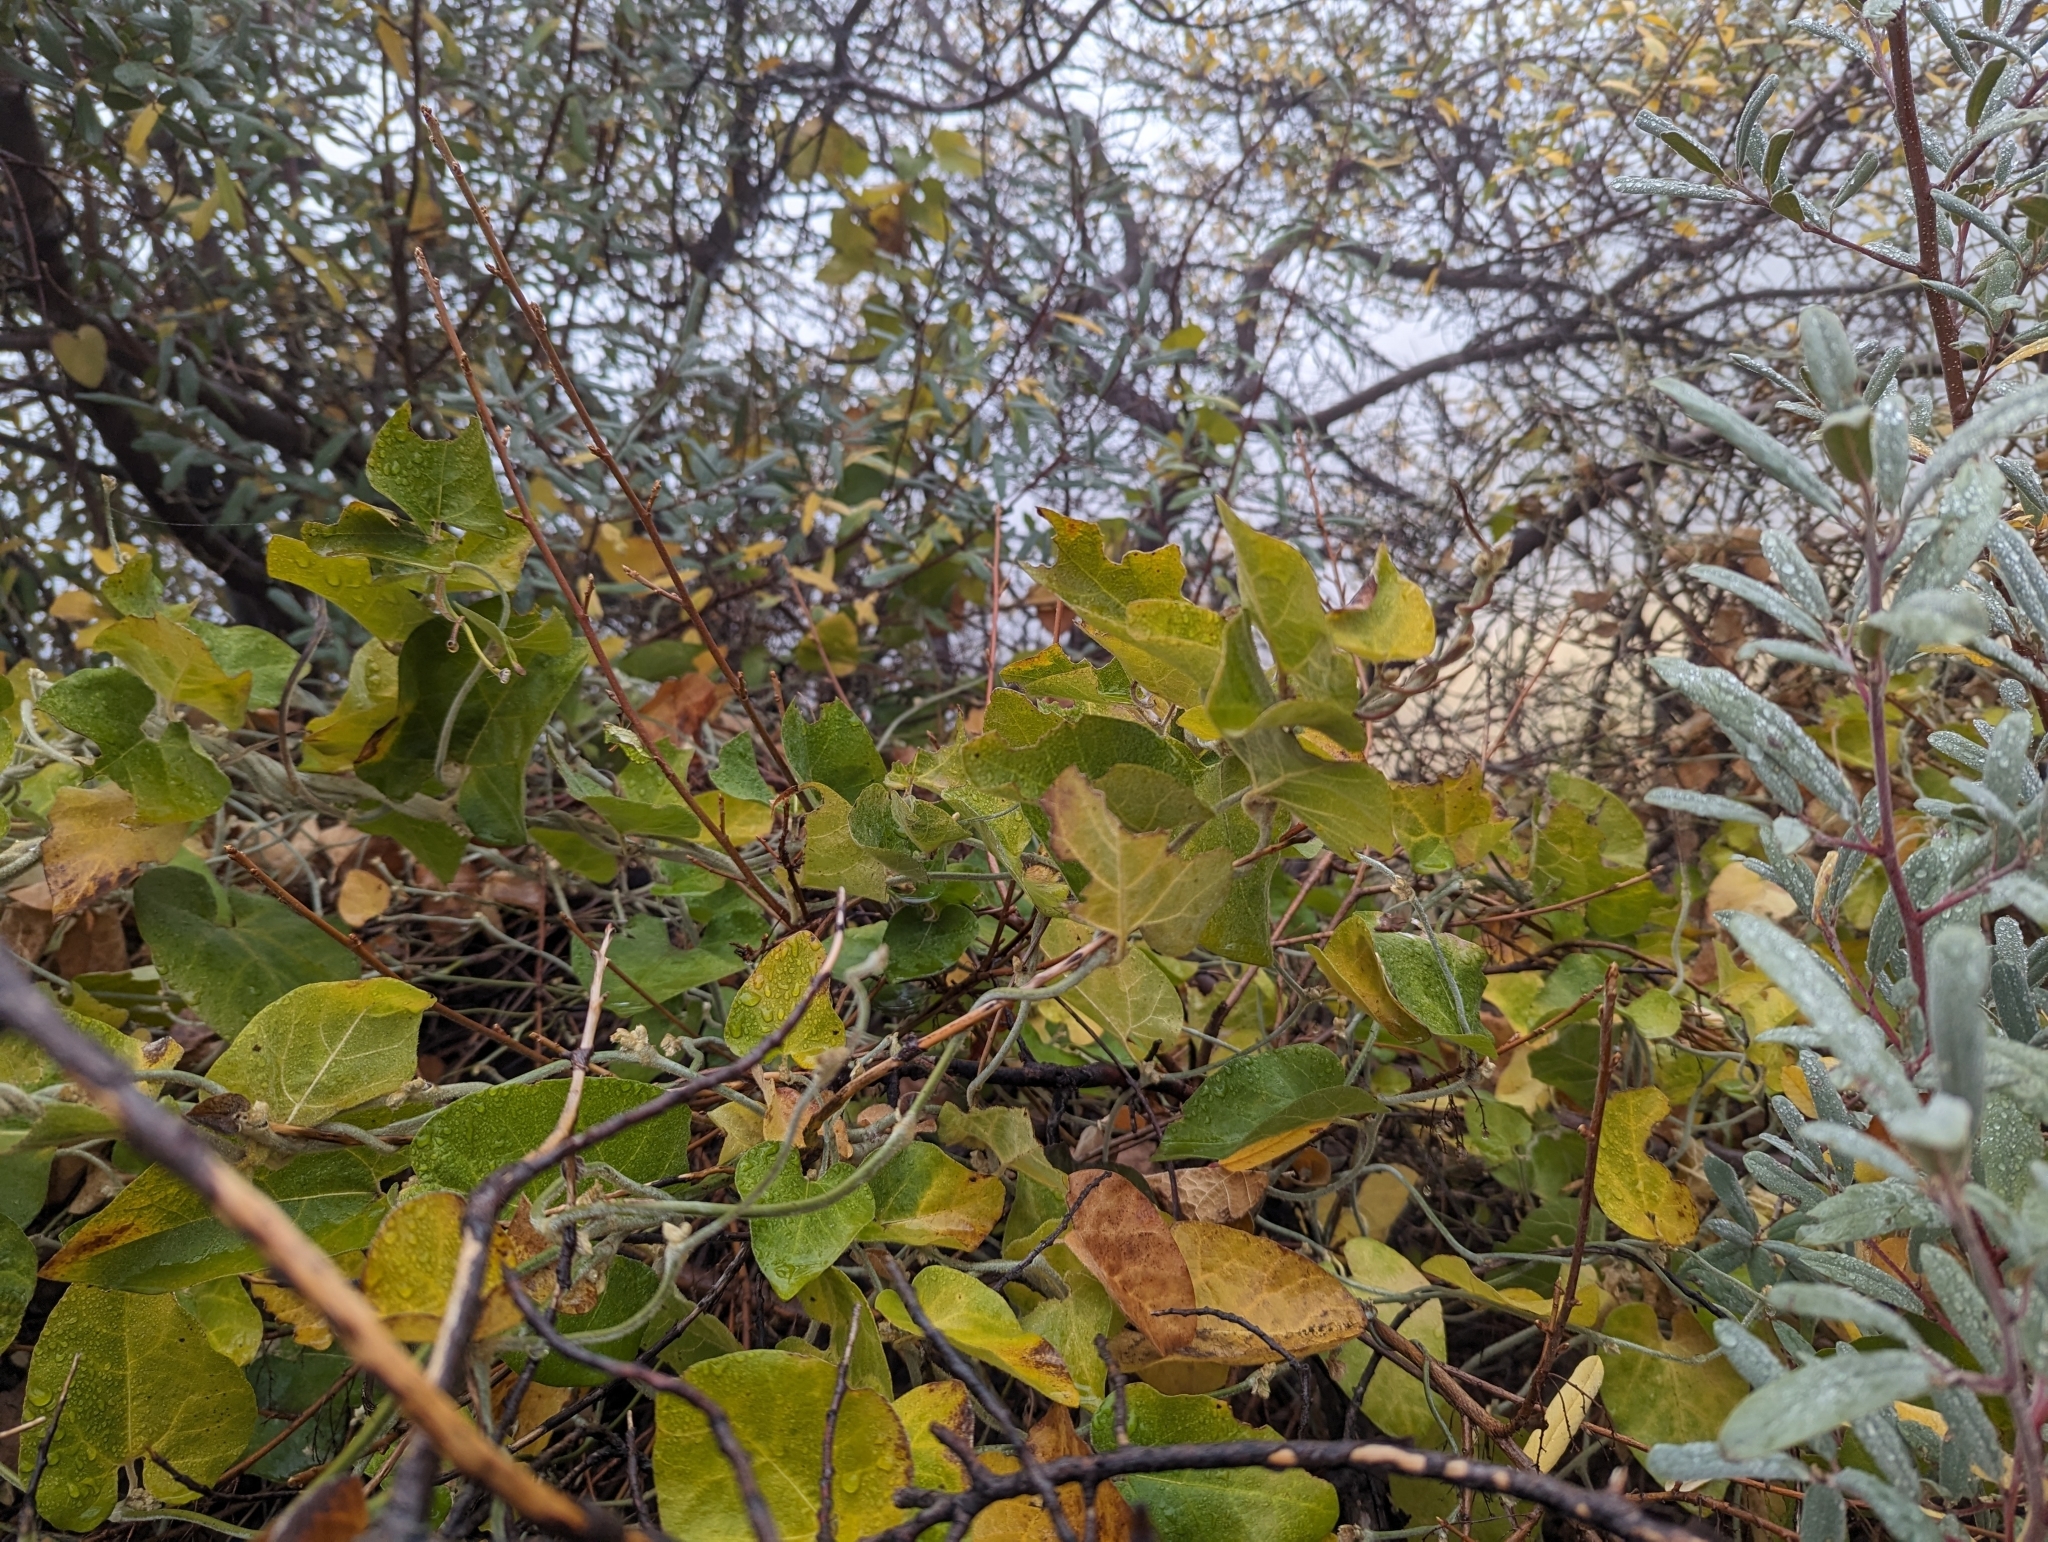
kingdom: Plantae
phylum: Tracheophyta
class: Magnoliopsida
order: Piperales
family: Aristolochiaceae
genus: Isotrema
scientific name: Isotrema californicum
